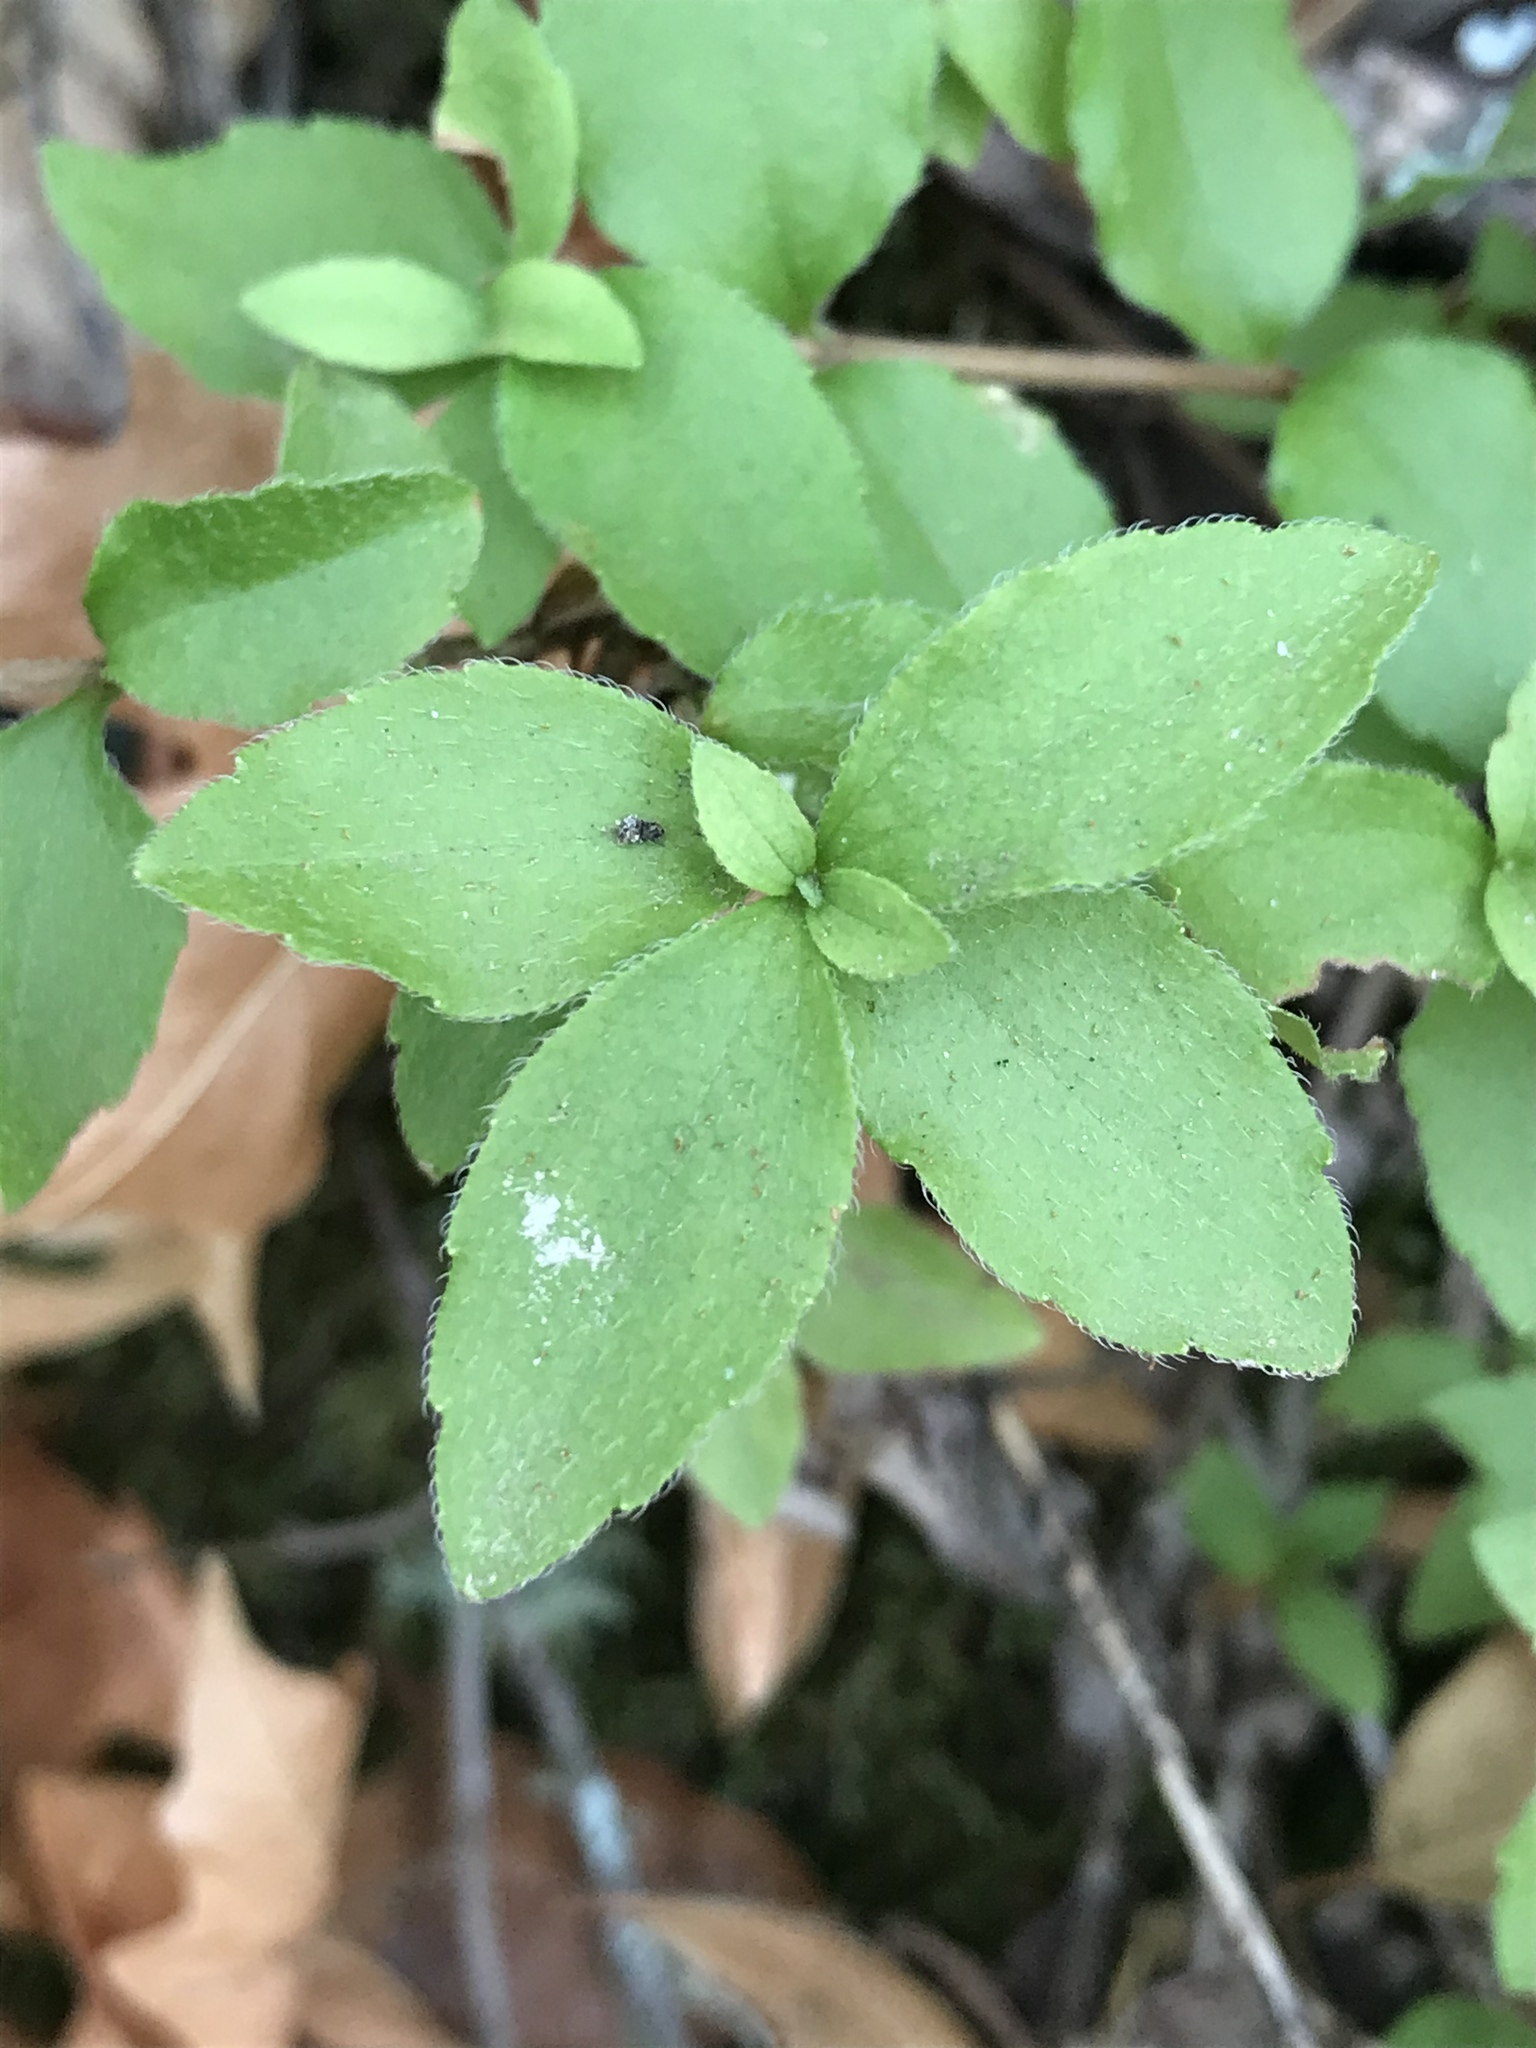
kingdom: Plantae
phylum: Tracheophyta
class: Magnoliopsida
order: Cornales
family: Hydrangeaceae
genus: Whipplea
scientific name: Whipplea modesta
